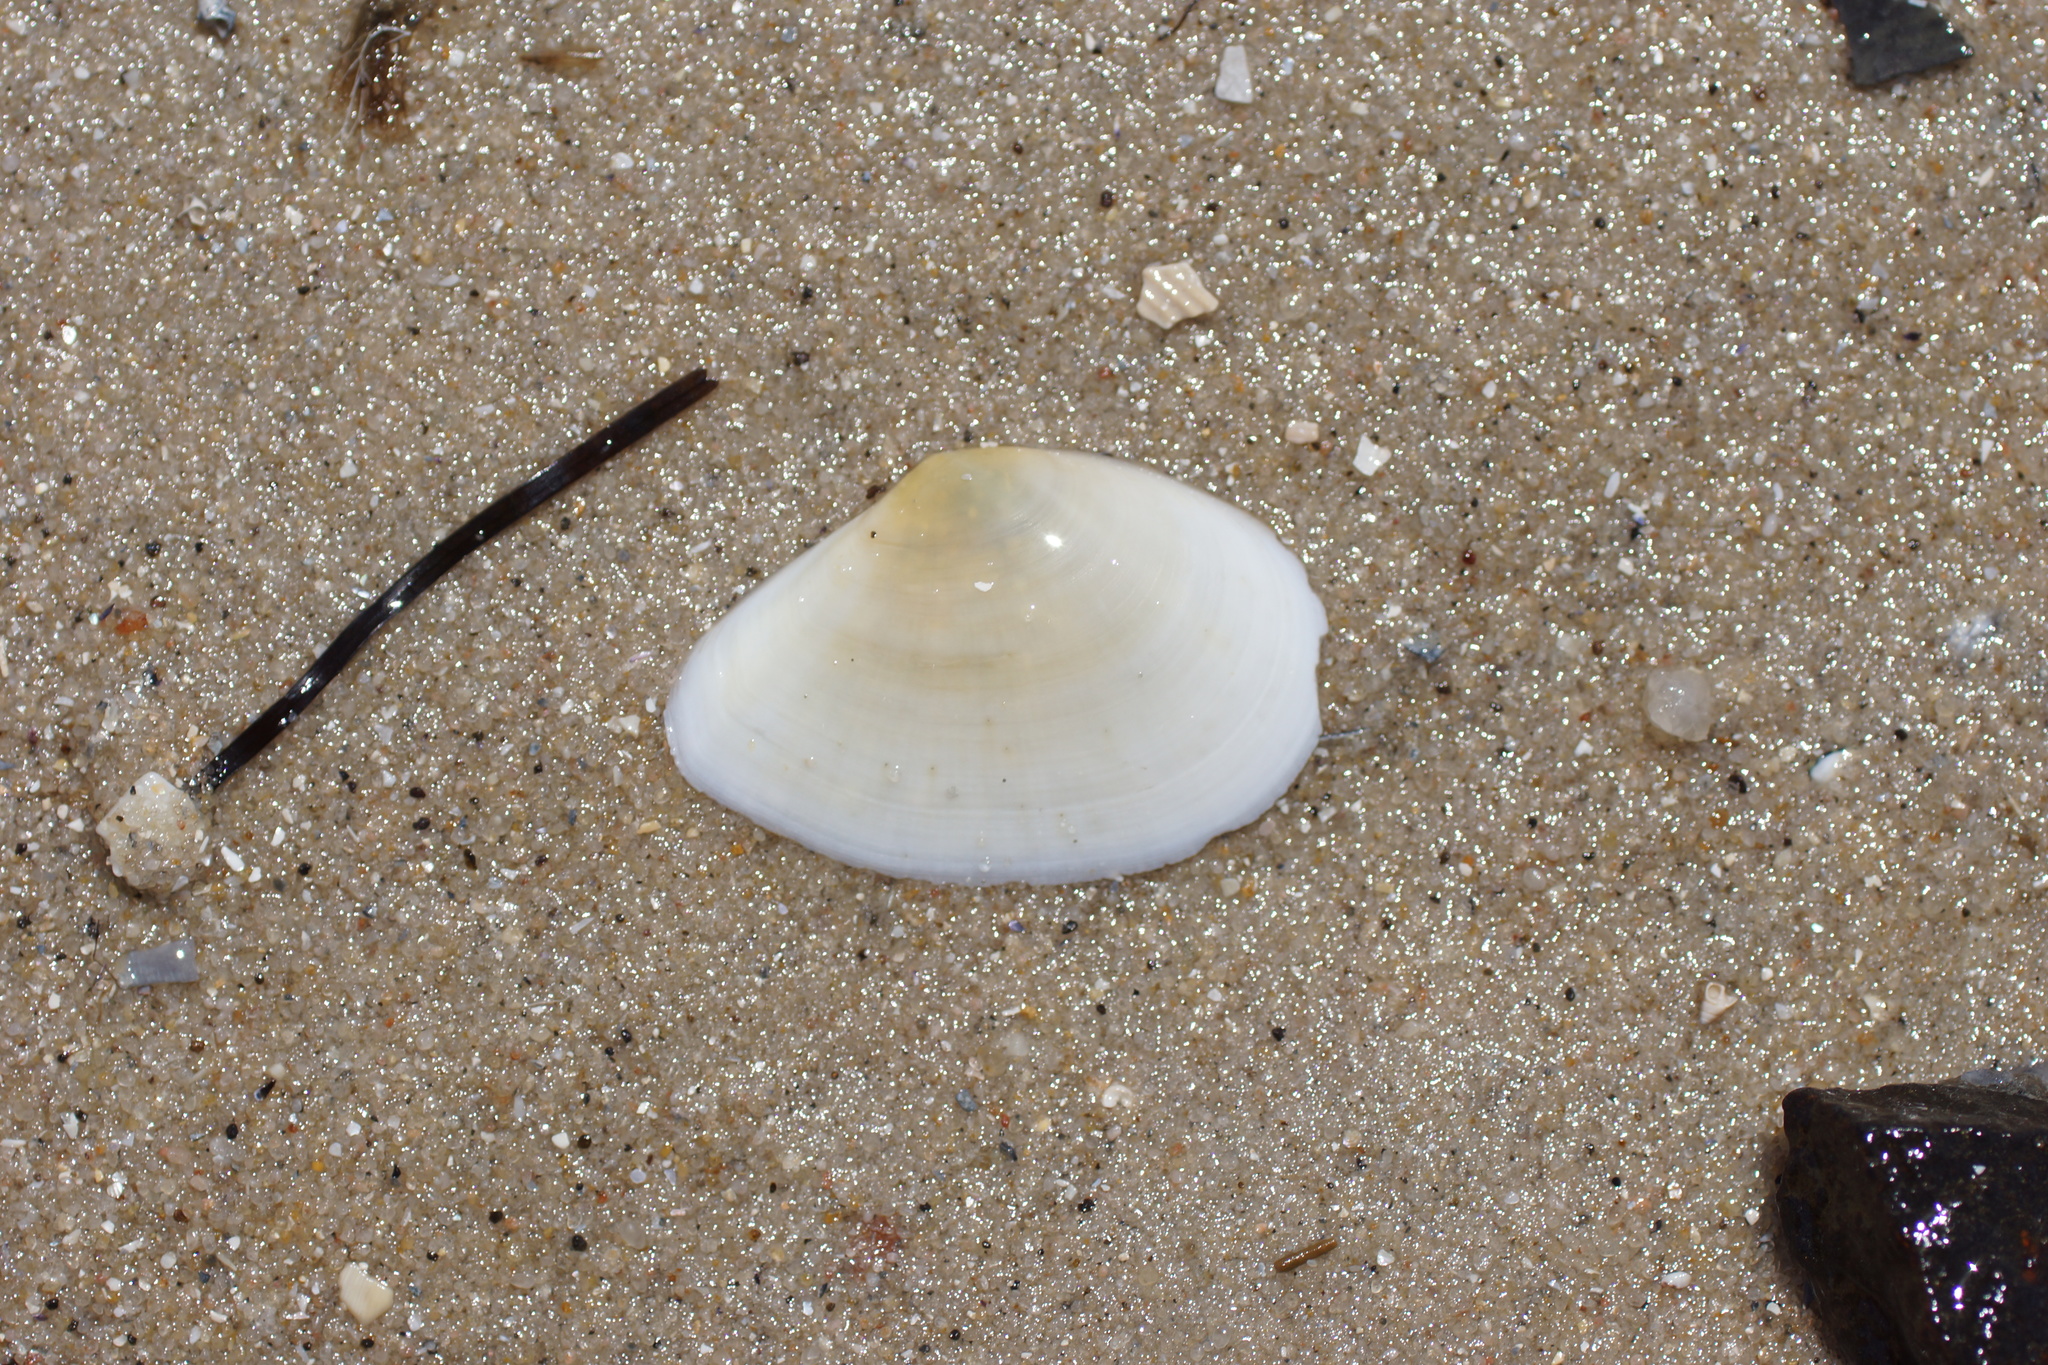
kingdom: Animalia
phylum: Mollusca
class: Bivalvia
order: Cardiida
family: Tellinidae
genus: Macomona
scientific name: Macomona deltoidalis
